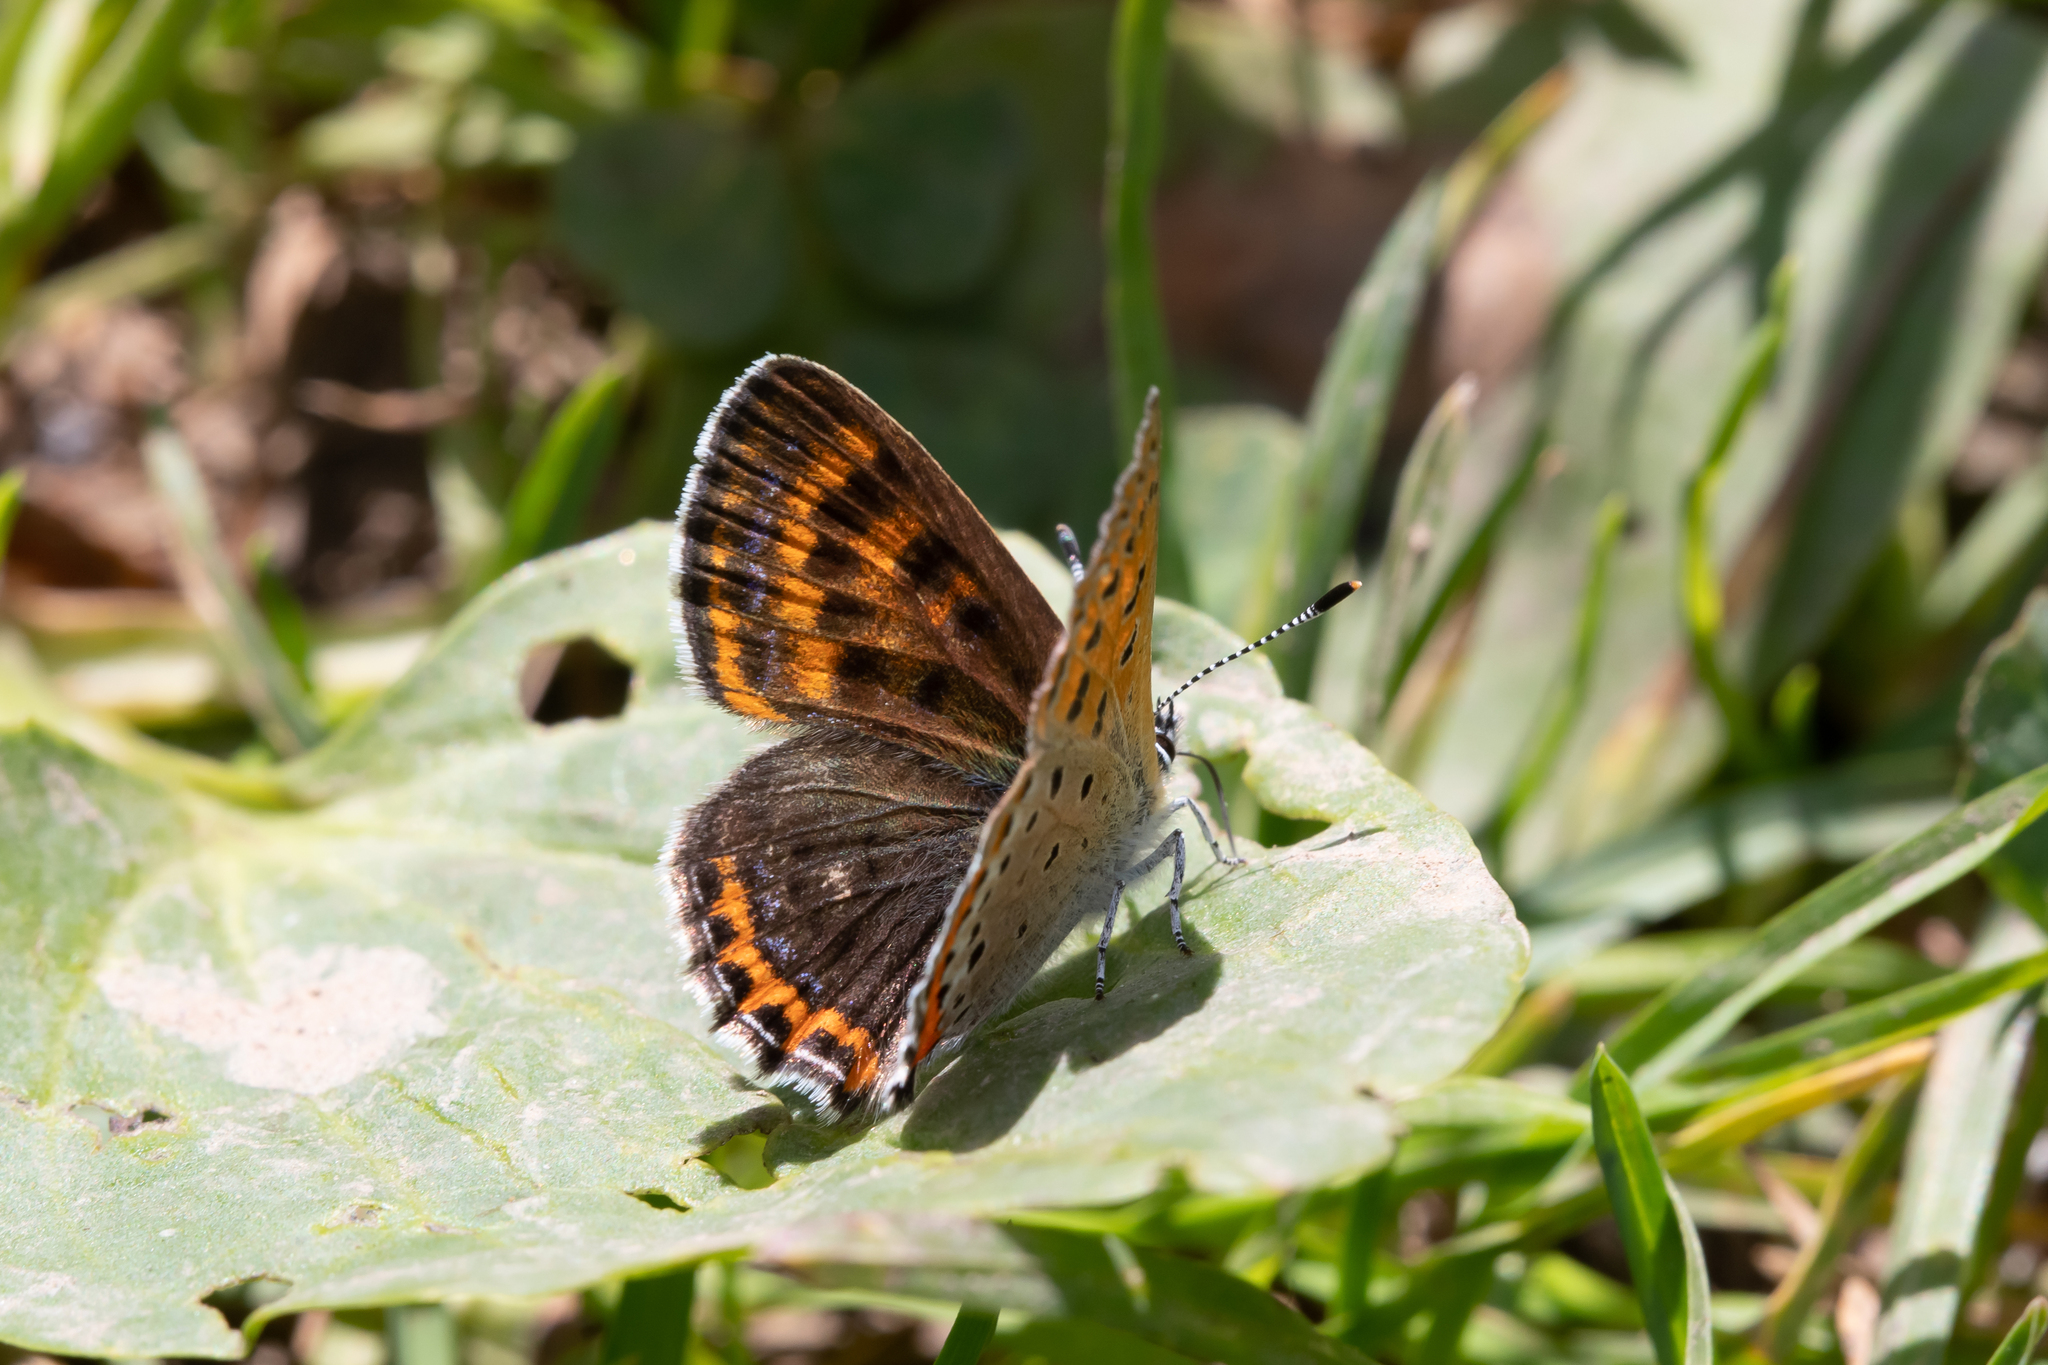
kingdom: Animalia
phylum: Arthropoda
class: Insecta
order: Lepidoptera
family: Lycaenidae
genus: Helleia
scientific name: Helleia helle
